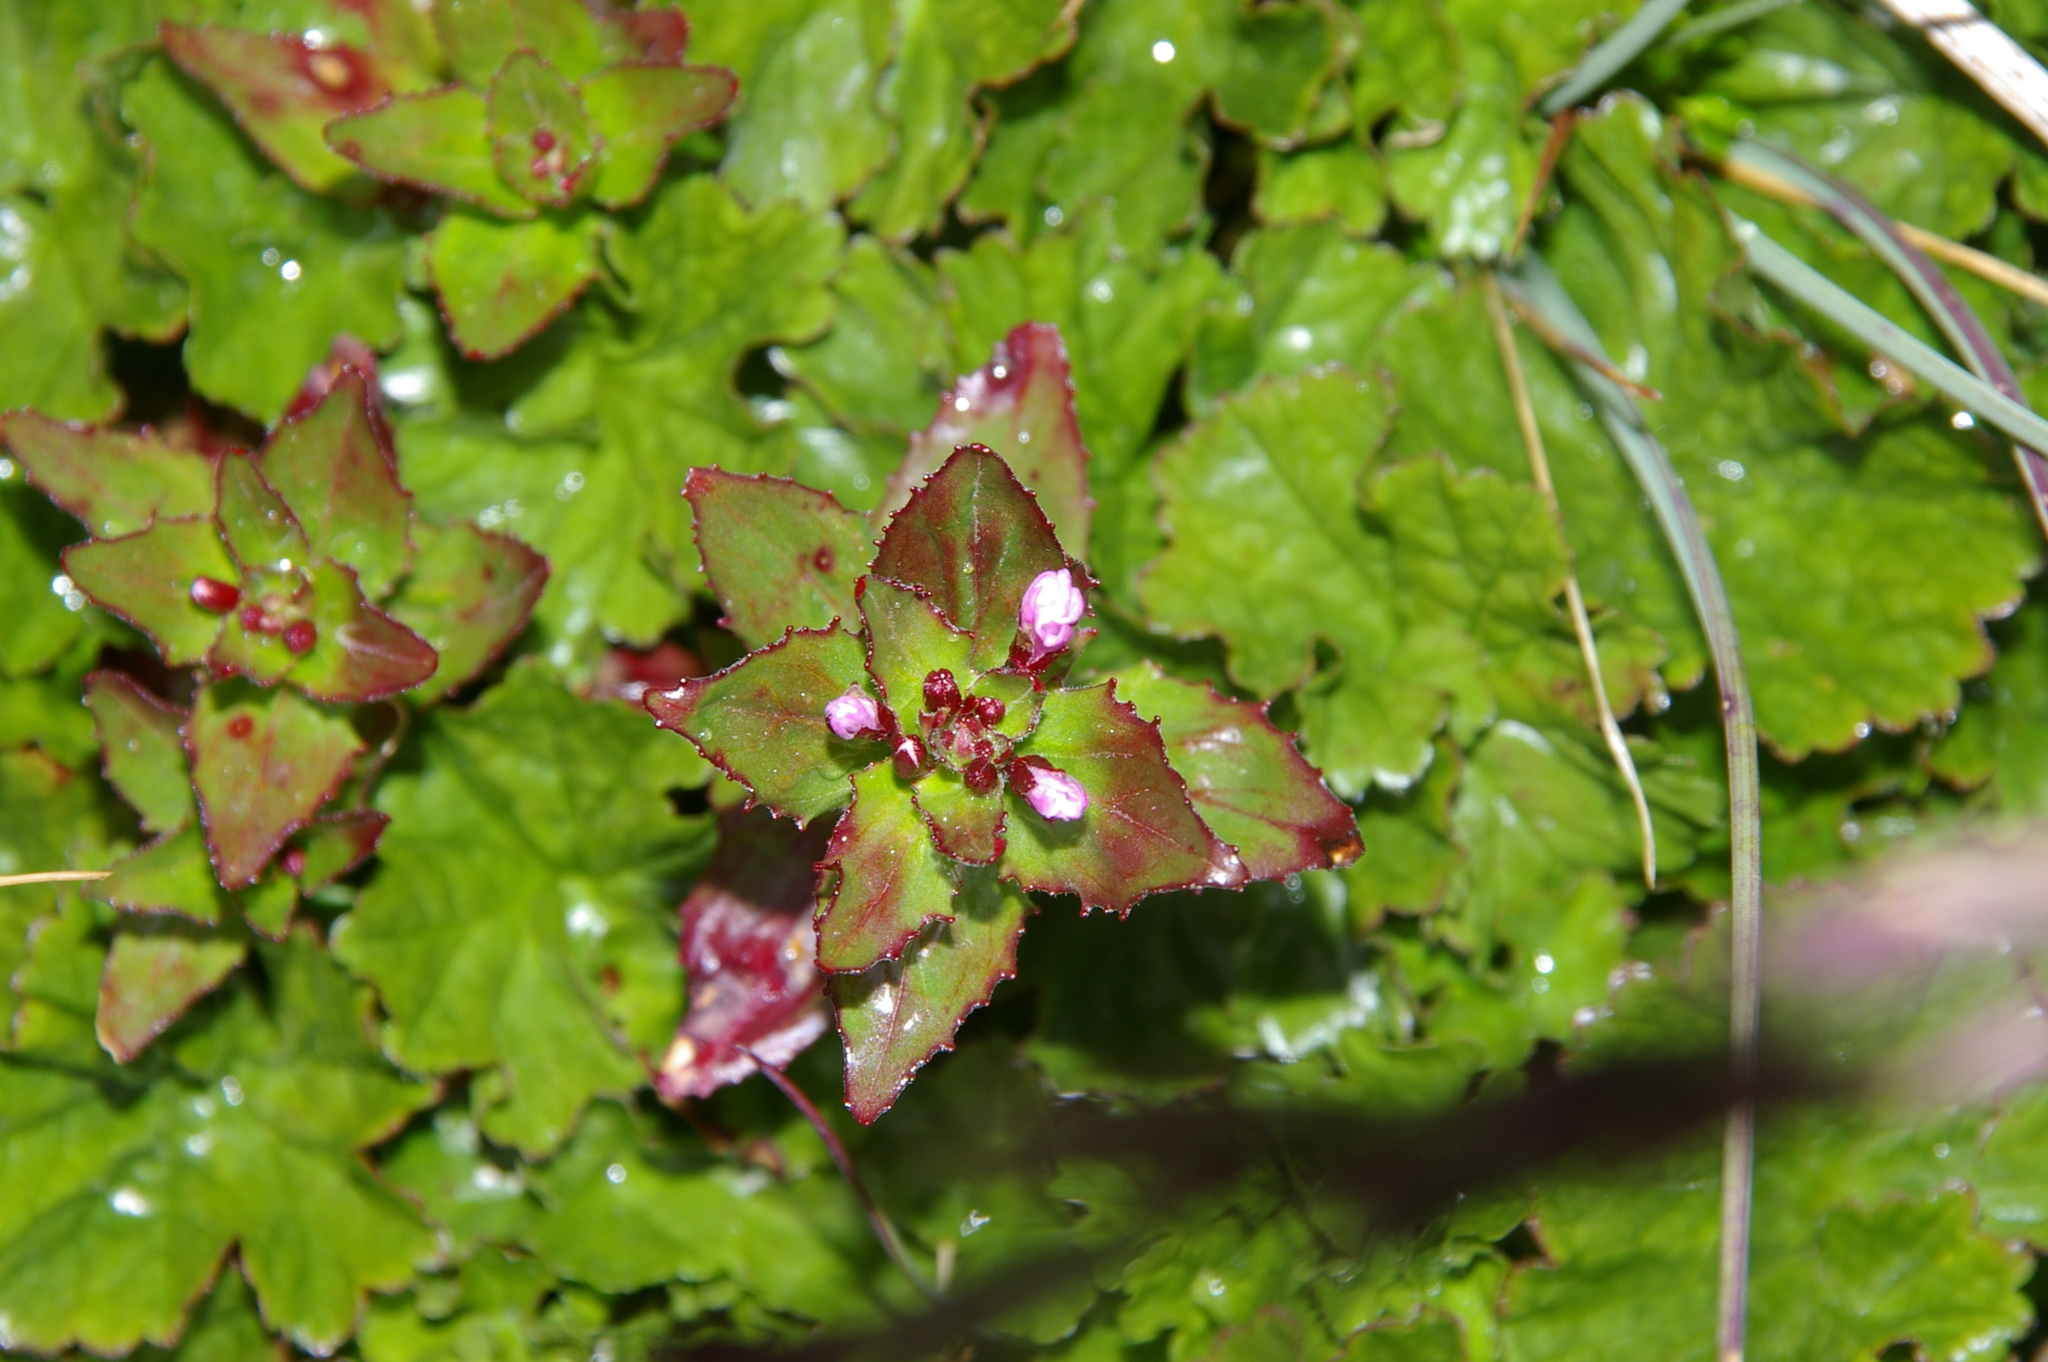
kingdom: Plantae
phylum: Tracheophyta
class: Magnoliopsida
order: Myrtales
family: Onagraceae
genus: Epilobium
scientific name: Epilobium australe
